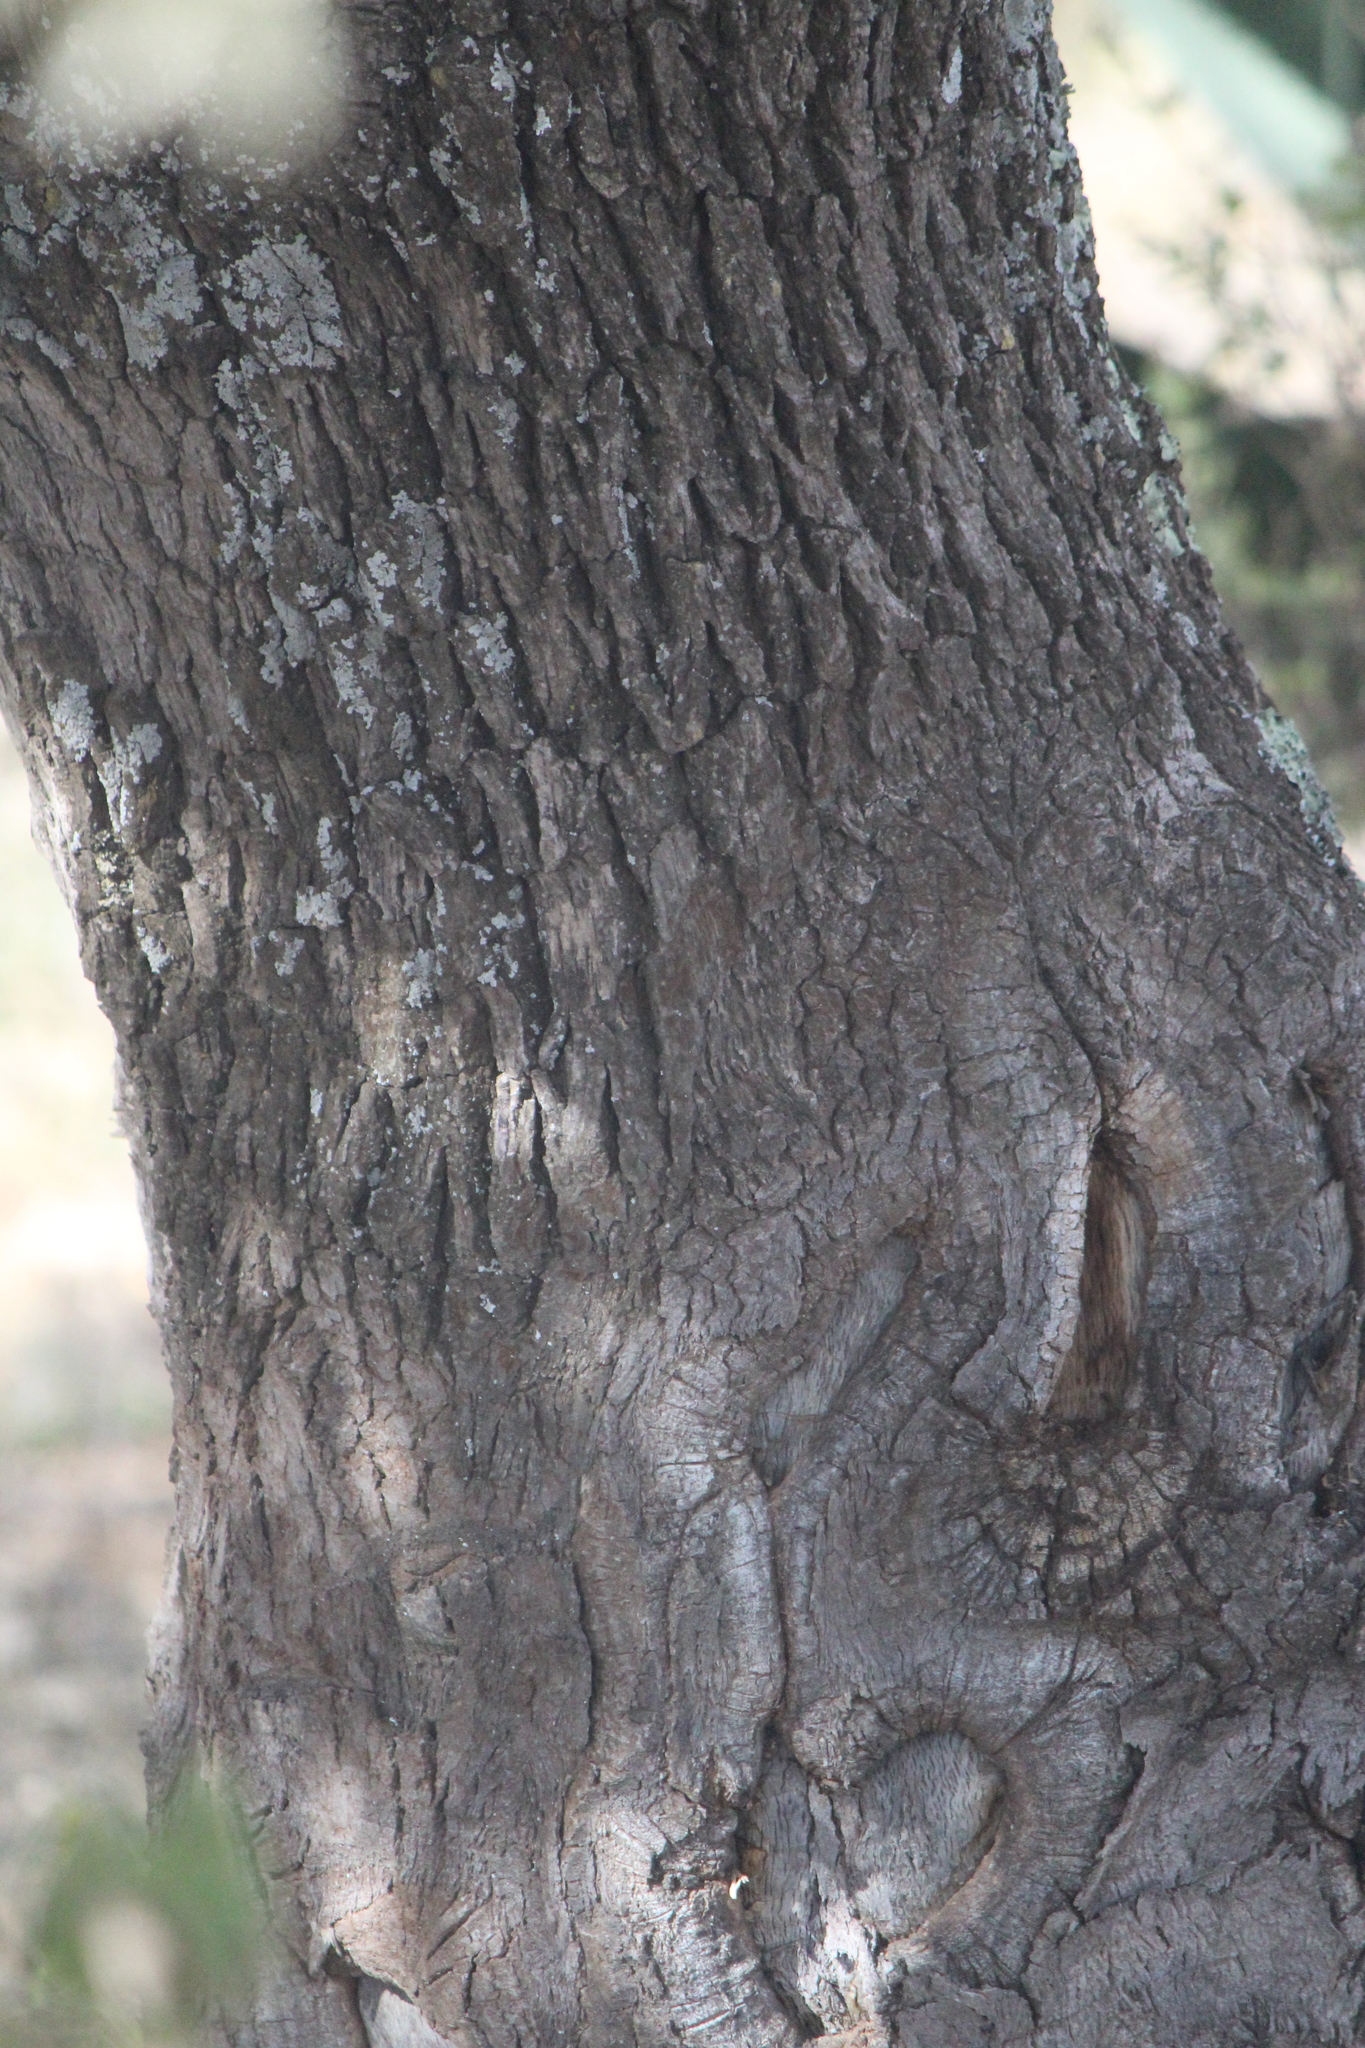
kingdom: Plantae
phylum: Tracheophyta
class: Magnoliopsida
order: Fagales
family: Fagaceae
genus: Quercus
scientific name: Quercus grisea
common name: Gray oak
